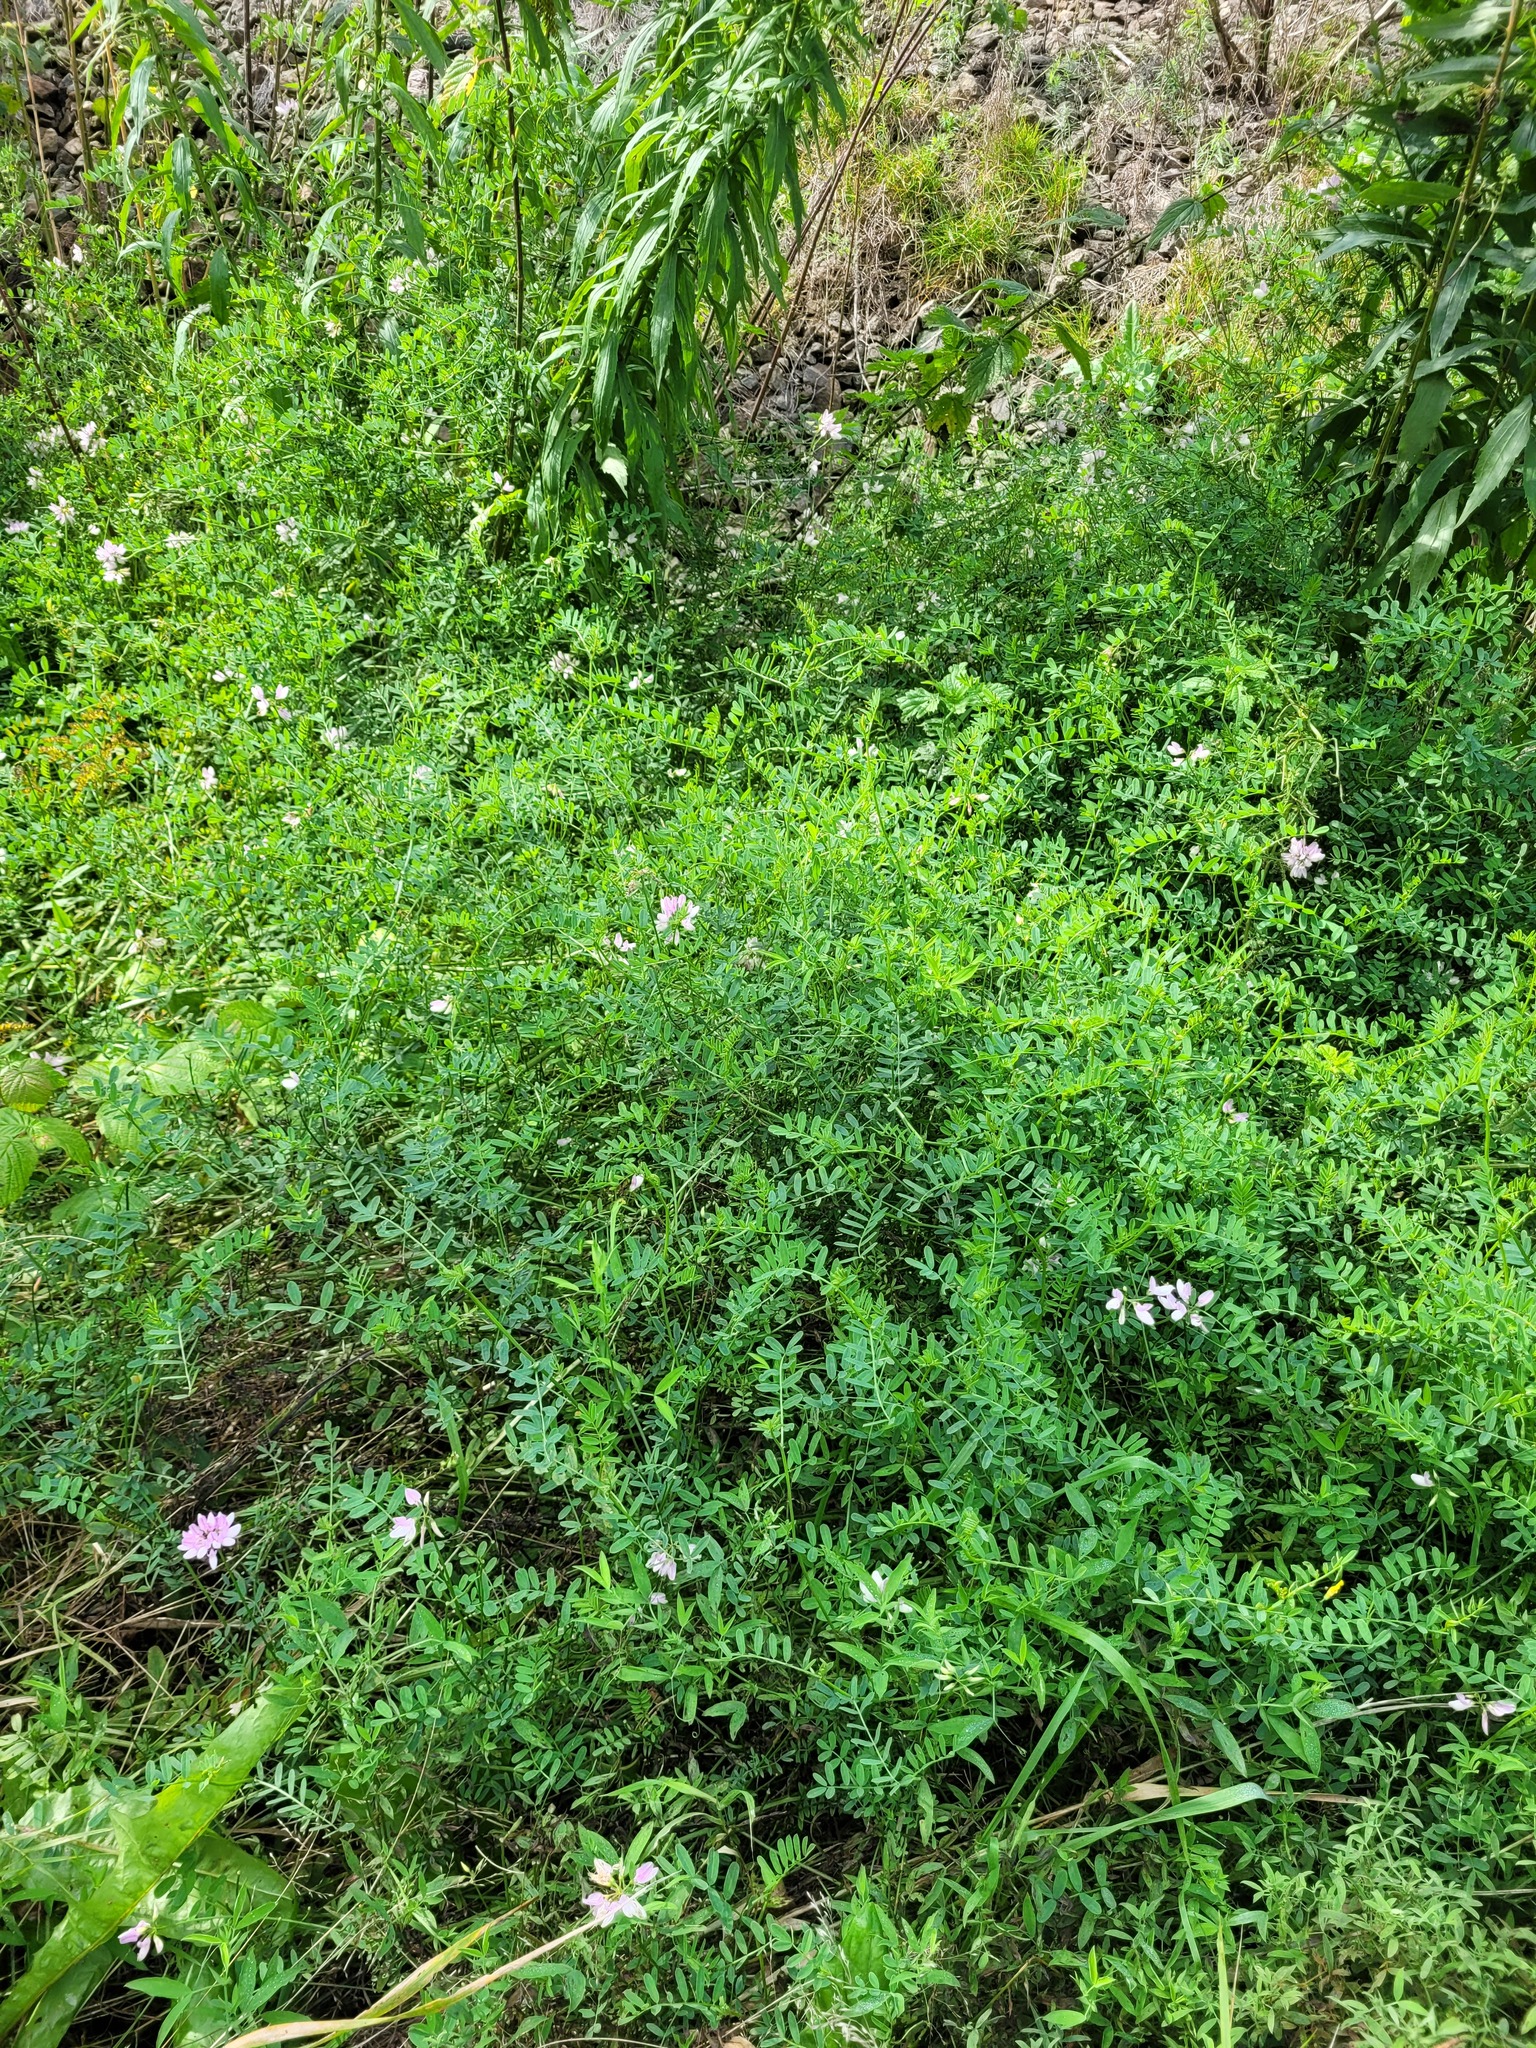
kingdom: Plantae
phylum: Tracheophyta
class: Magnoliopsida
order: Fabales
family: Fabaceae
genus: Coronilla
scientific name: Coronilla varia
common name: Crownvetch
